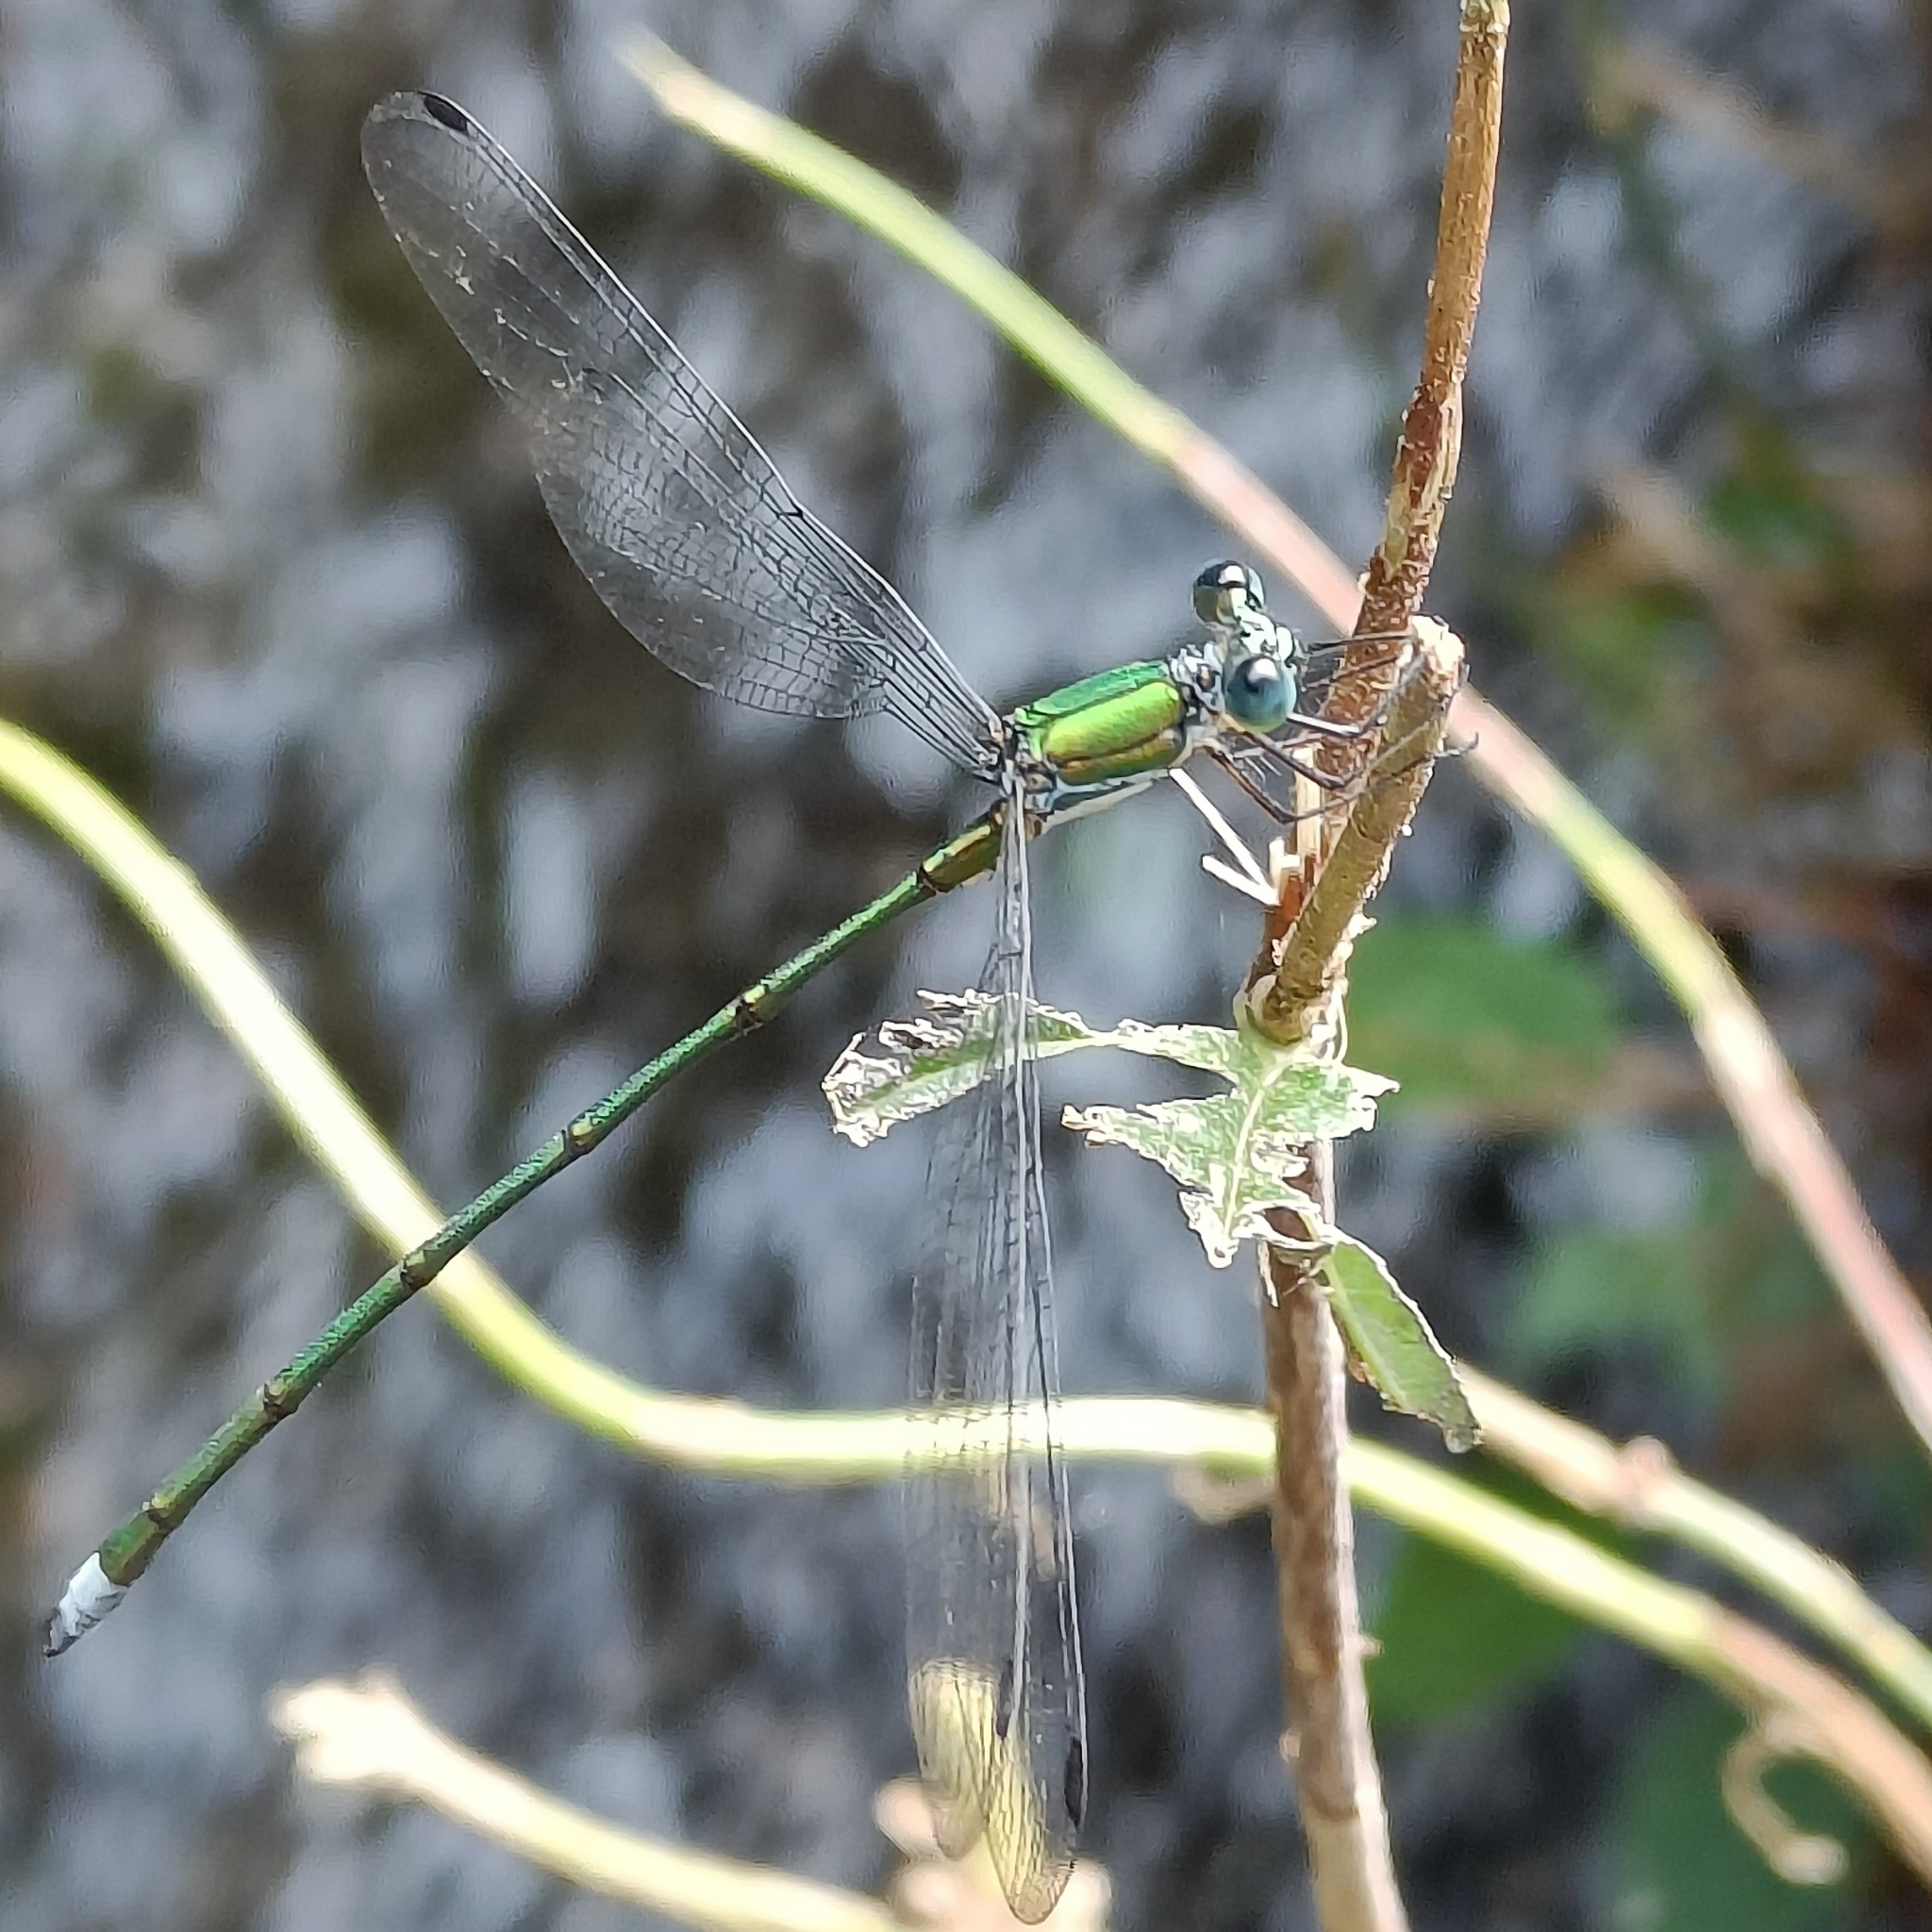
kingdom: Animalia
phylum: Arthropoda
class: Insecta
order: Odonata
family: Synlestidae
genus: Megalestes
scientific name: Megalestes major
